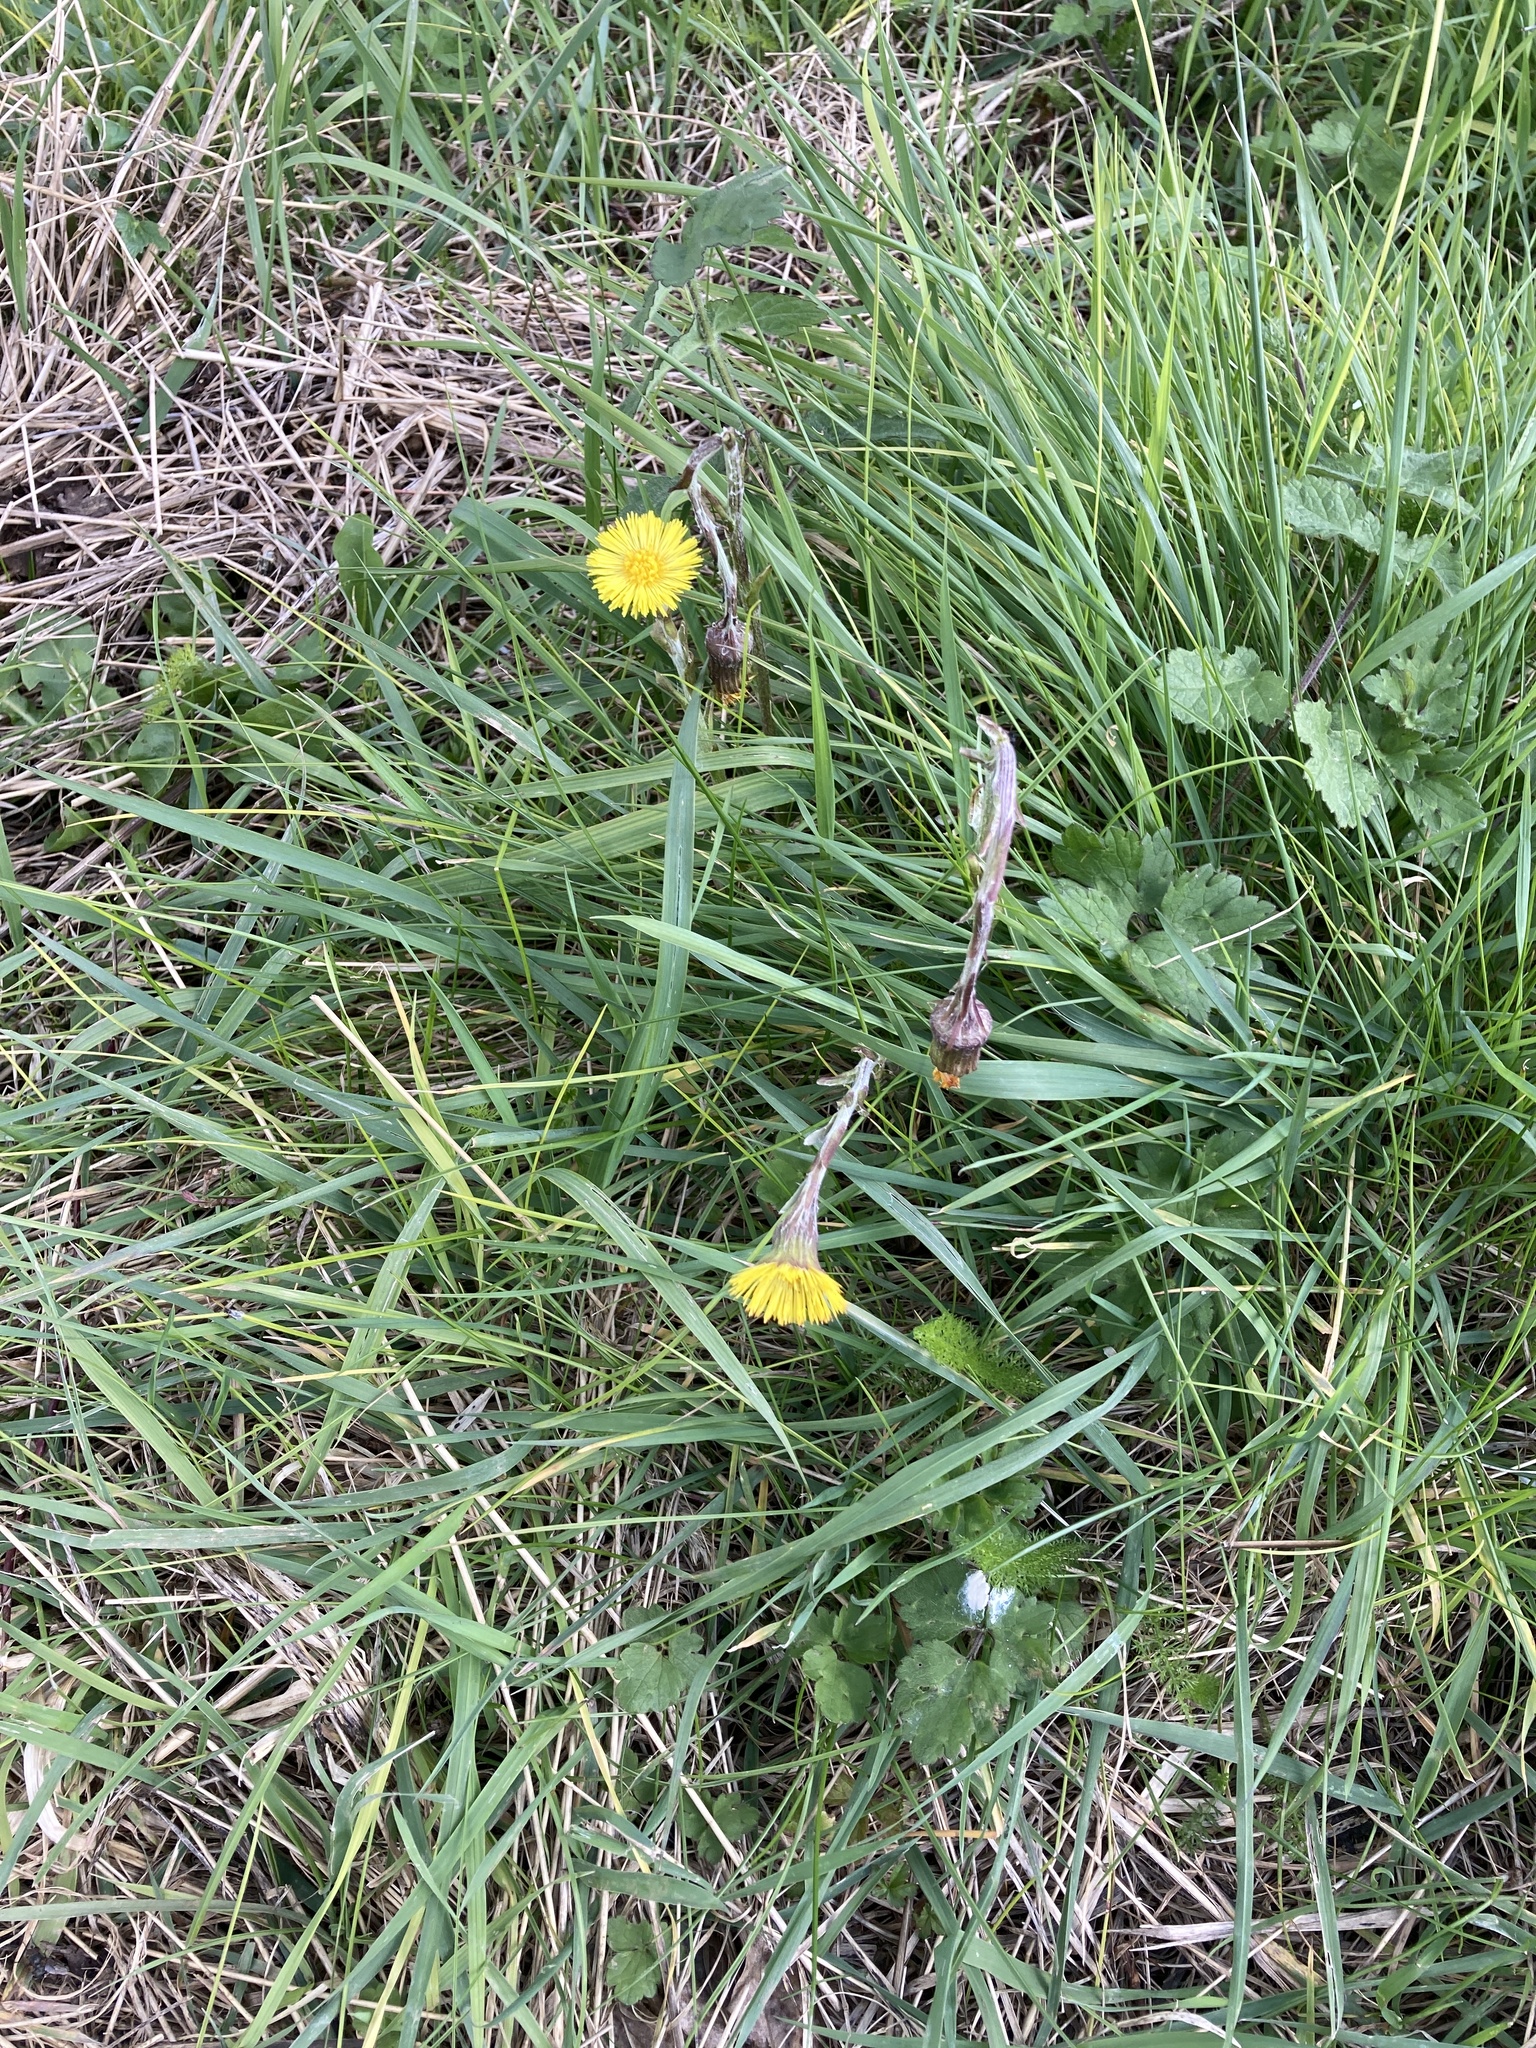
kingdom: Plantae
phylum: Tracheophyta
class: Magnoliopsida
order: Asterales
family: Asteraceae
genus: Tussilago
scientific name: Tussilago farfara
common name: Coltsfoot
